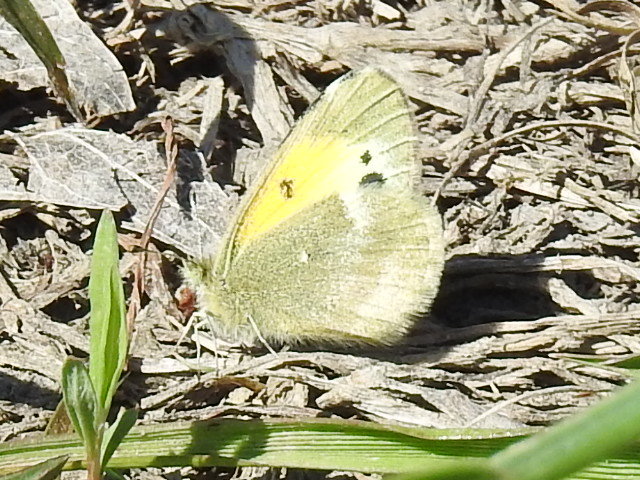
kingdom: Animalia
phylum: Arthropoda
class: Insecta
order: Lepidoptera
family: Pieridae
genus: Nathalis
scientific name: Nathalis iole
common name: Dainty sulphur
